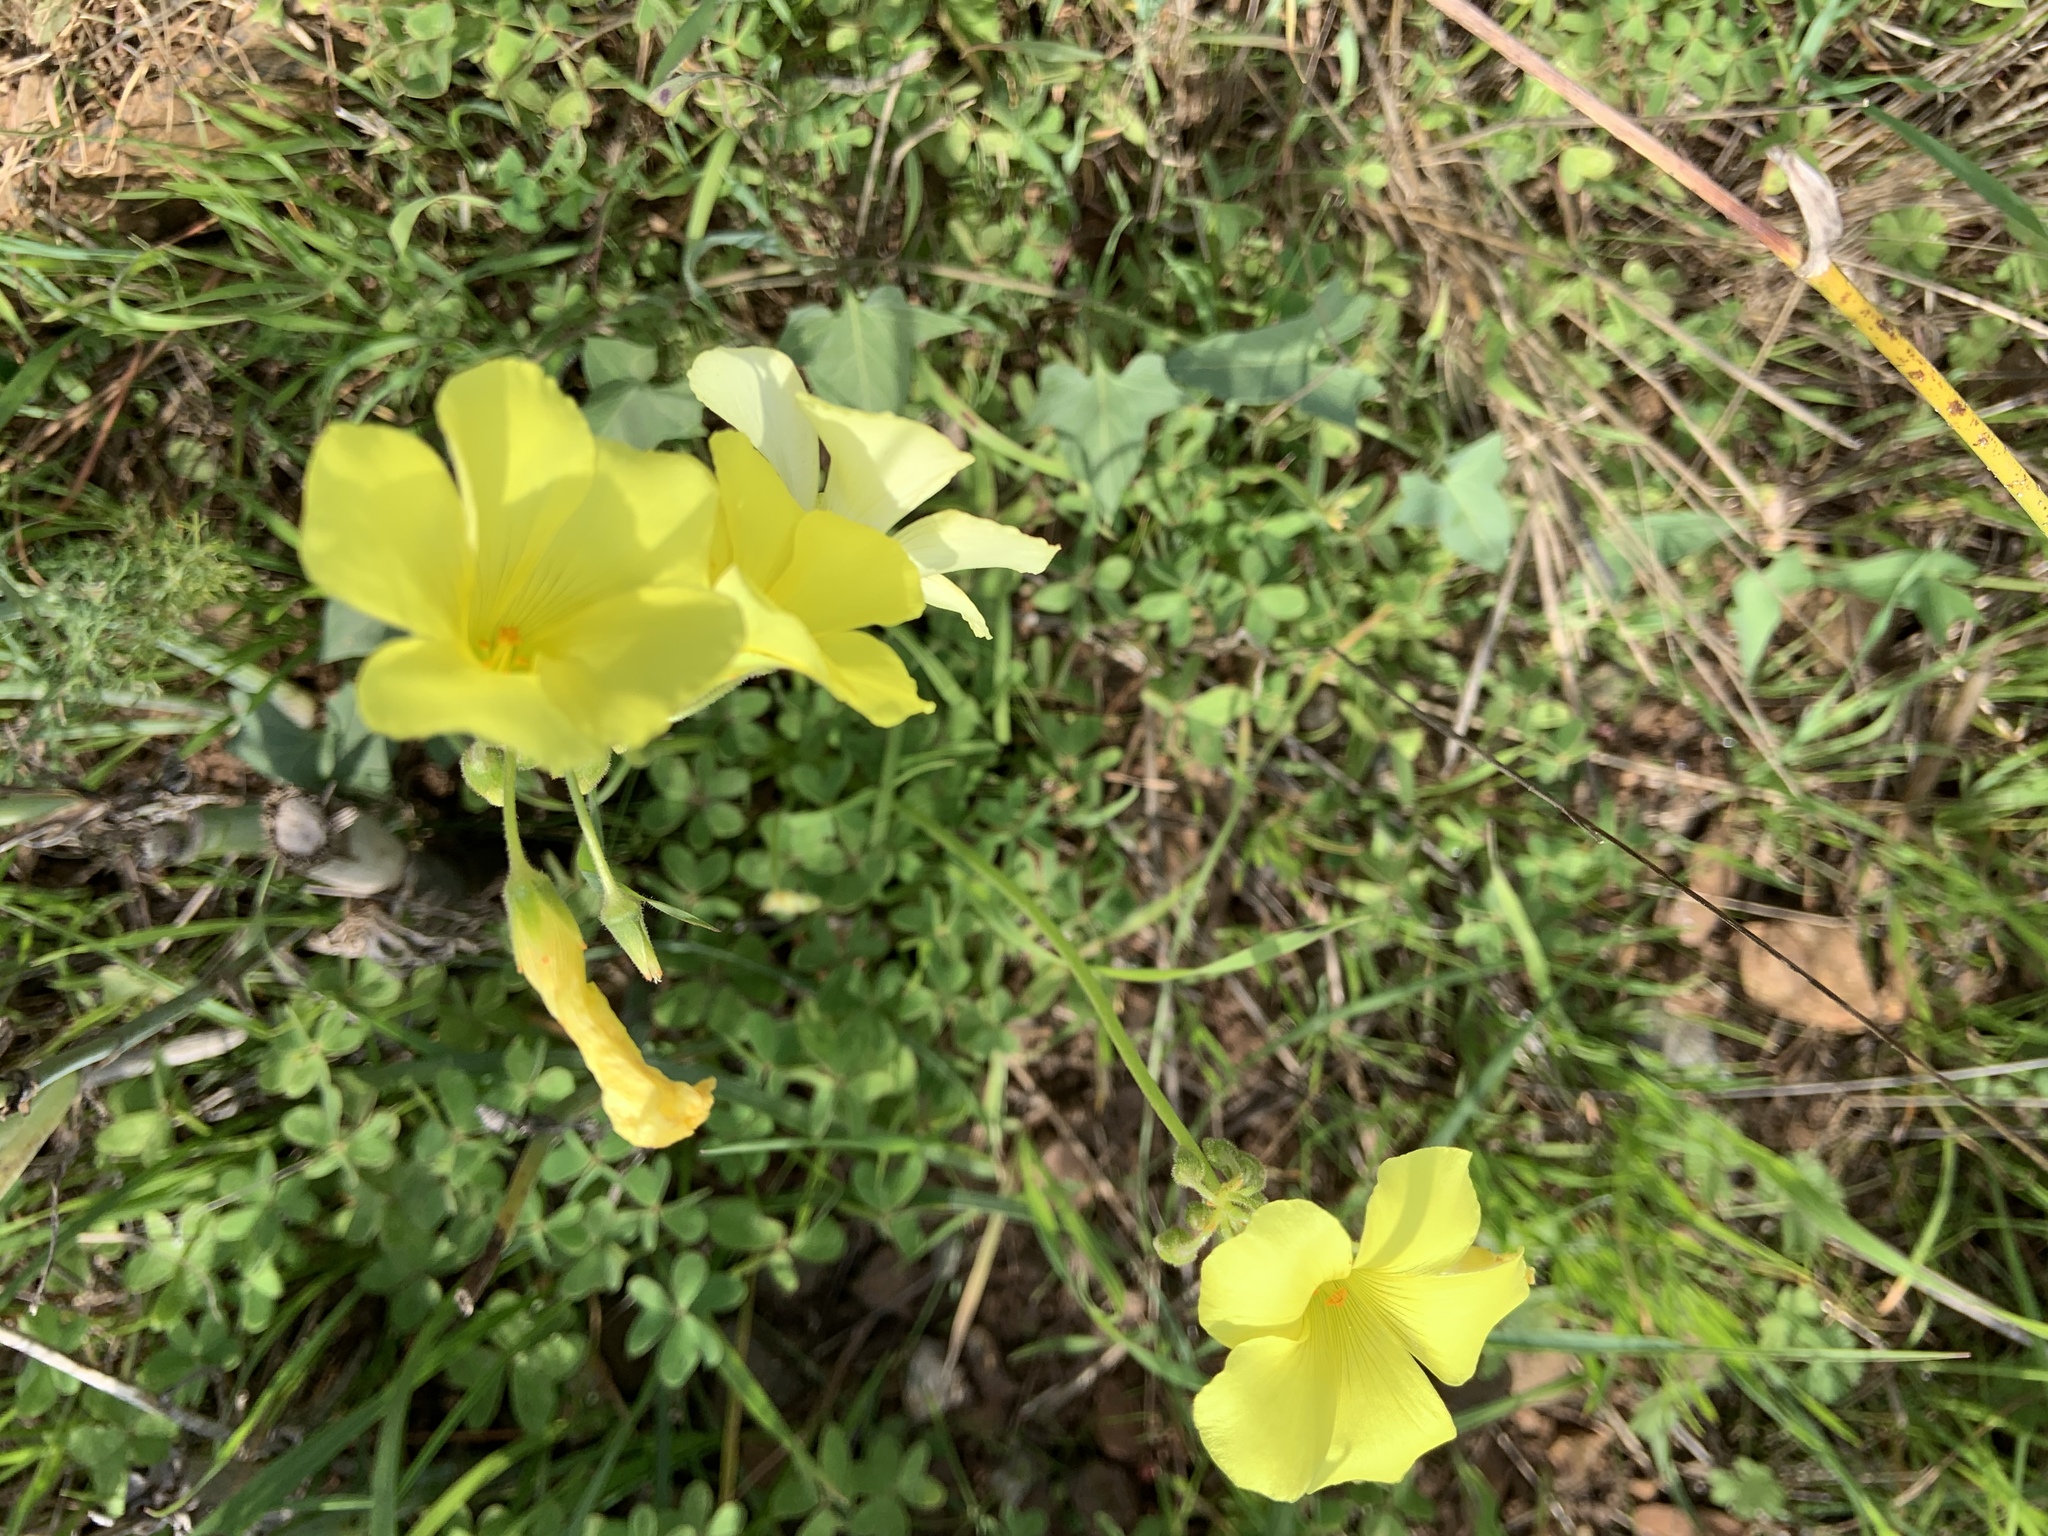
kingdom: Plantae
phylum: Tracheophyta
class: Magnoliopsida
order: Oxalidales
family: Oxalidaceae
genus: Oxalis
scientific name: Oxalis pes-caprae
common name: Bermuda-buttercup
